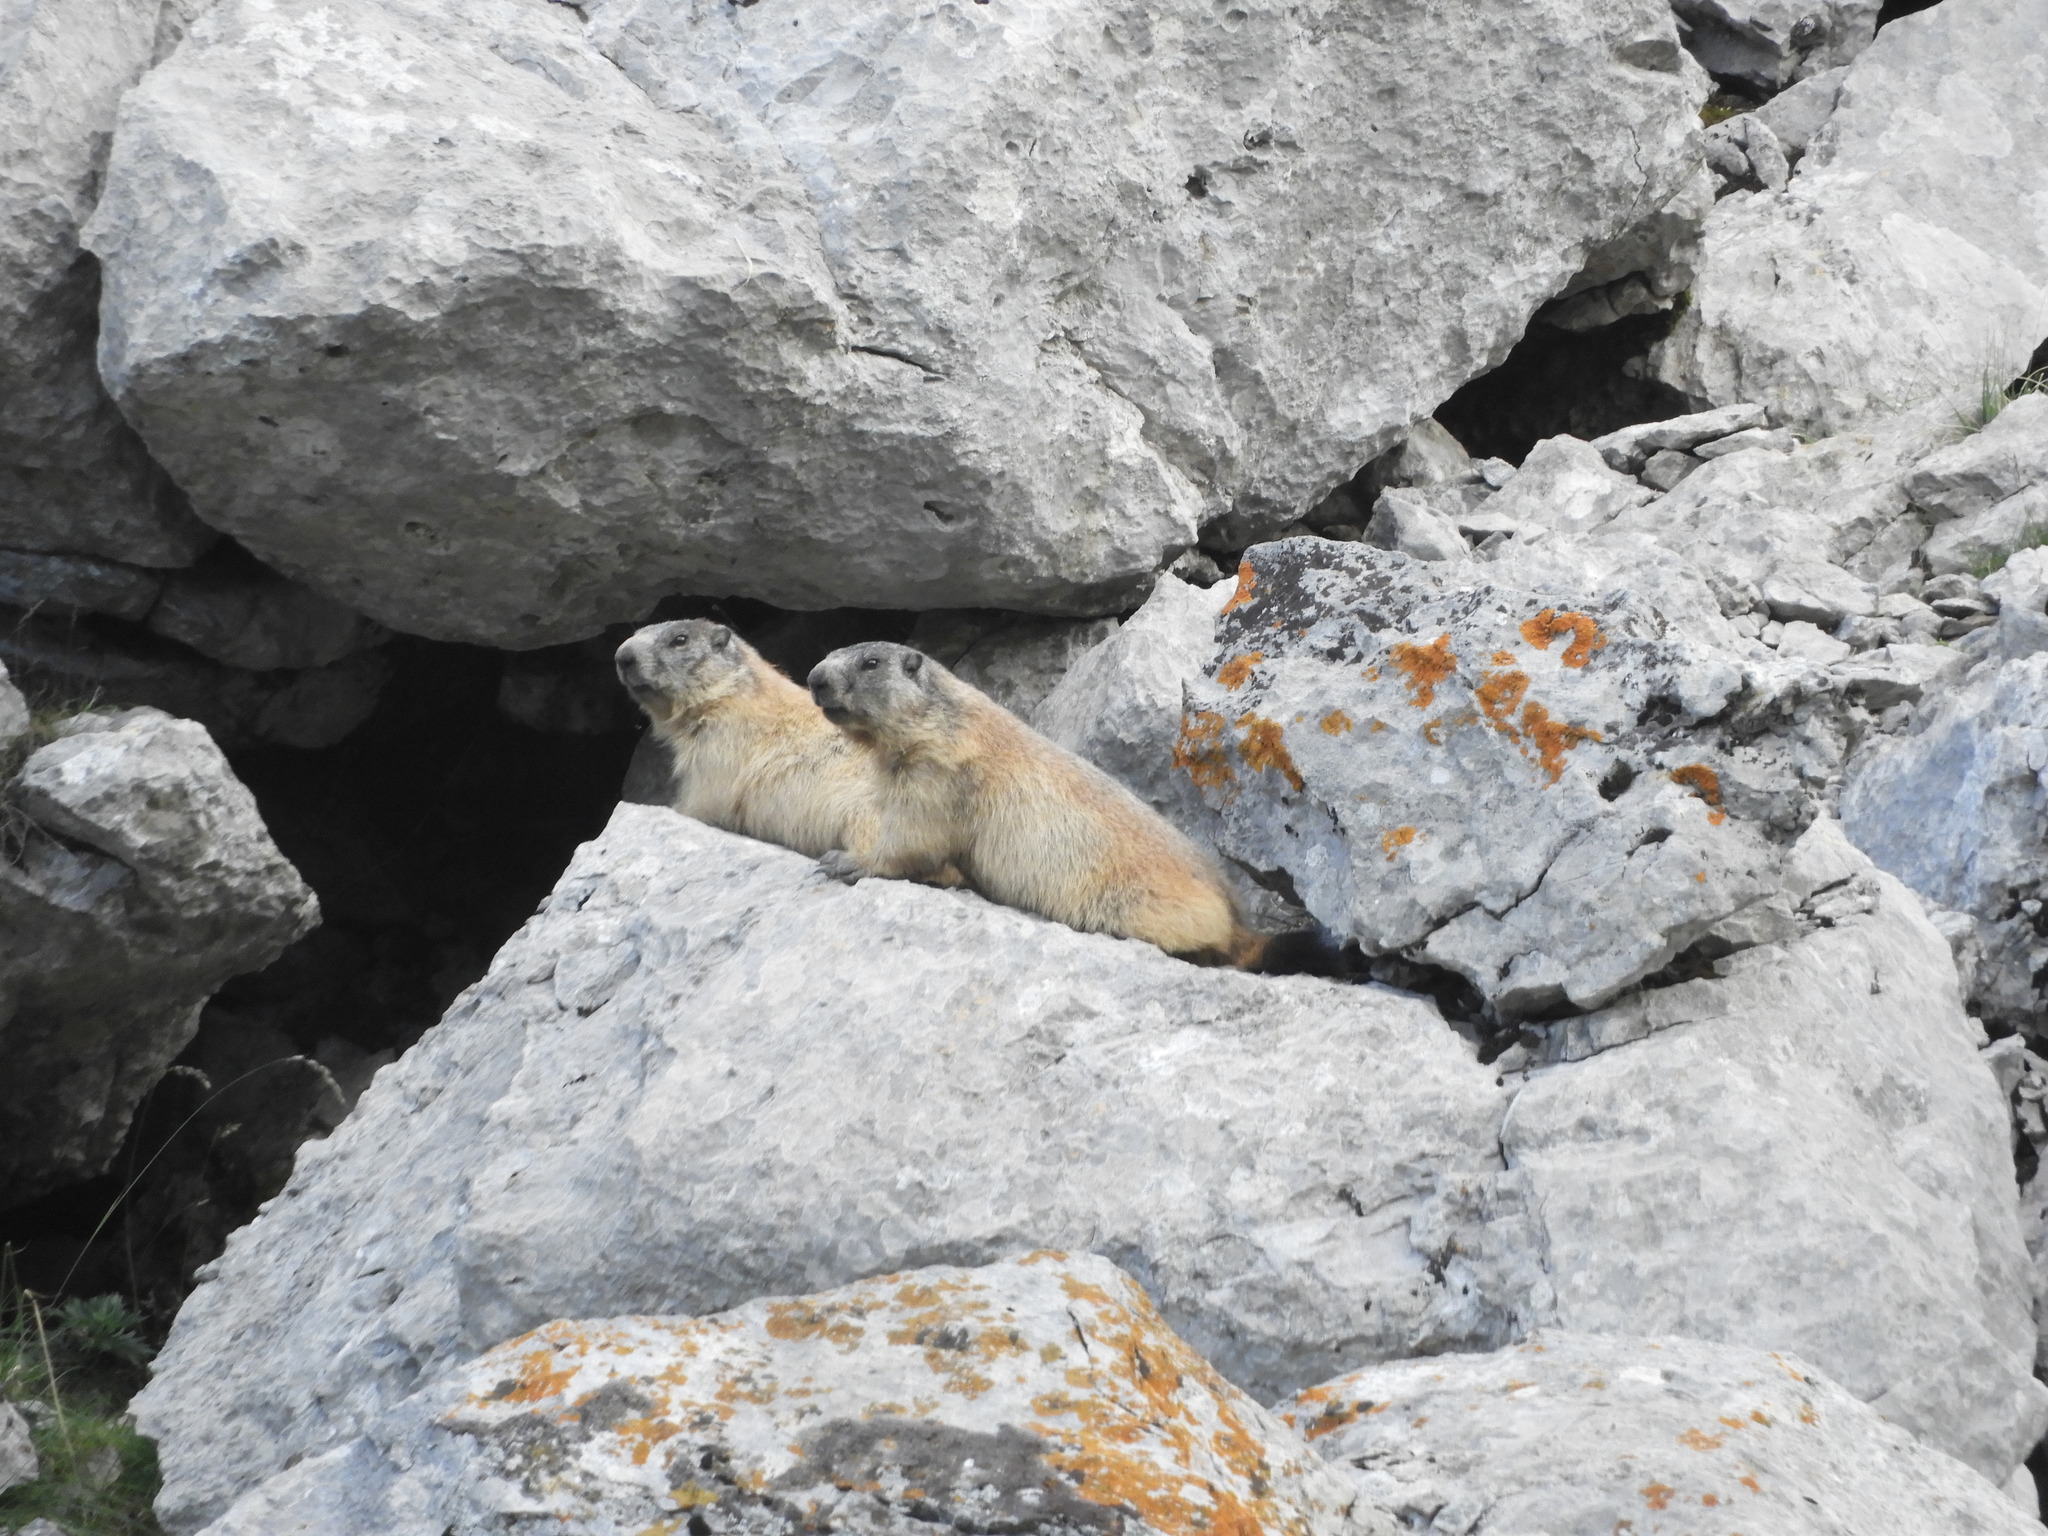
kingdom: Animalia
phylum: Chordata
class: Mammalia
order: Rodentia
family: Sciuridae
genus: Marmota
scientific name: Marmota marmota
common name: Alpine marmot
